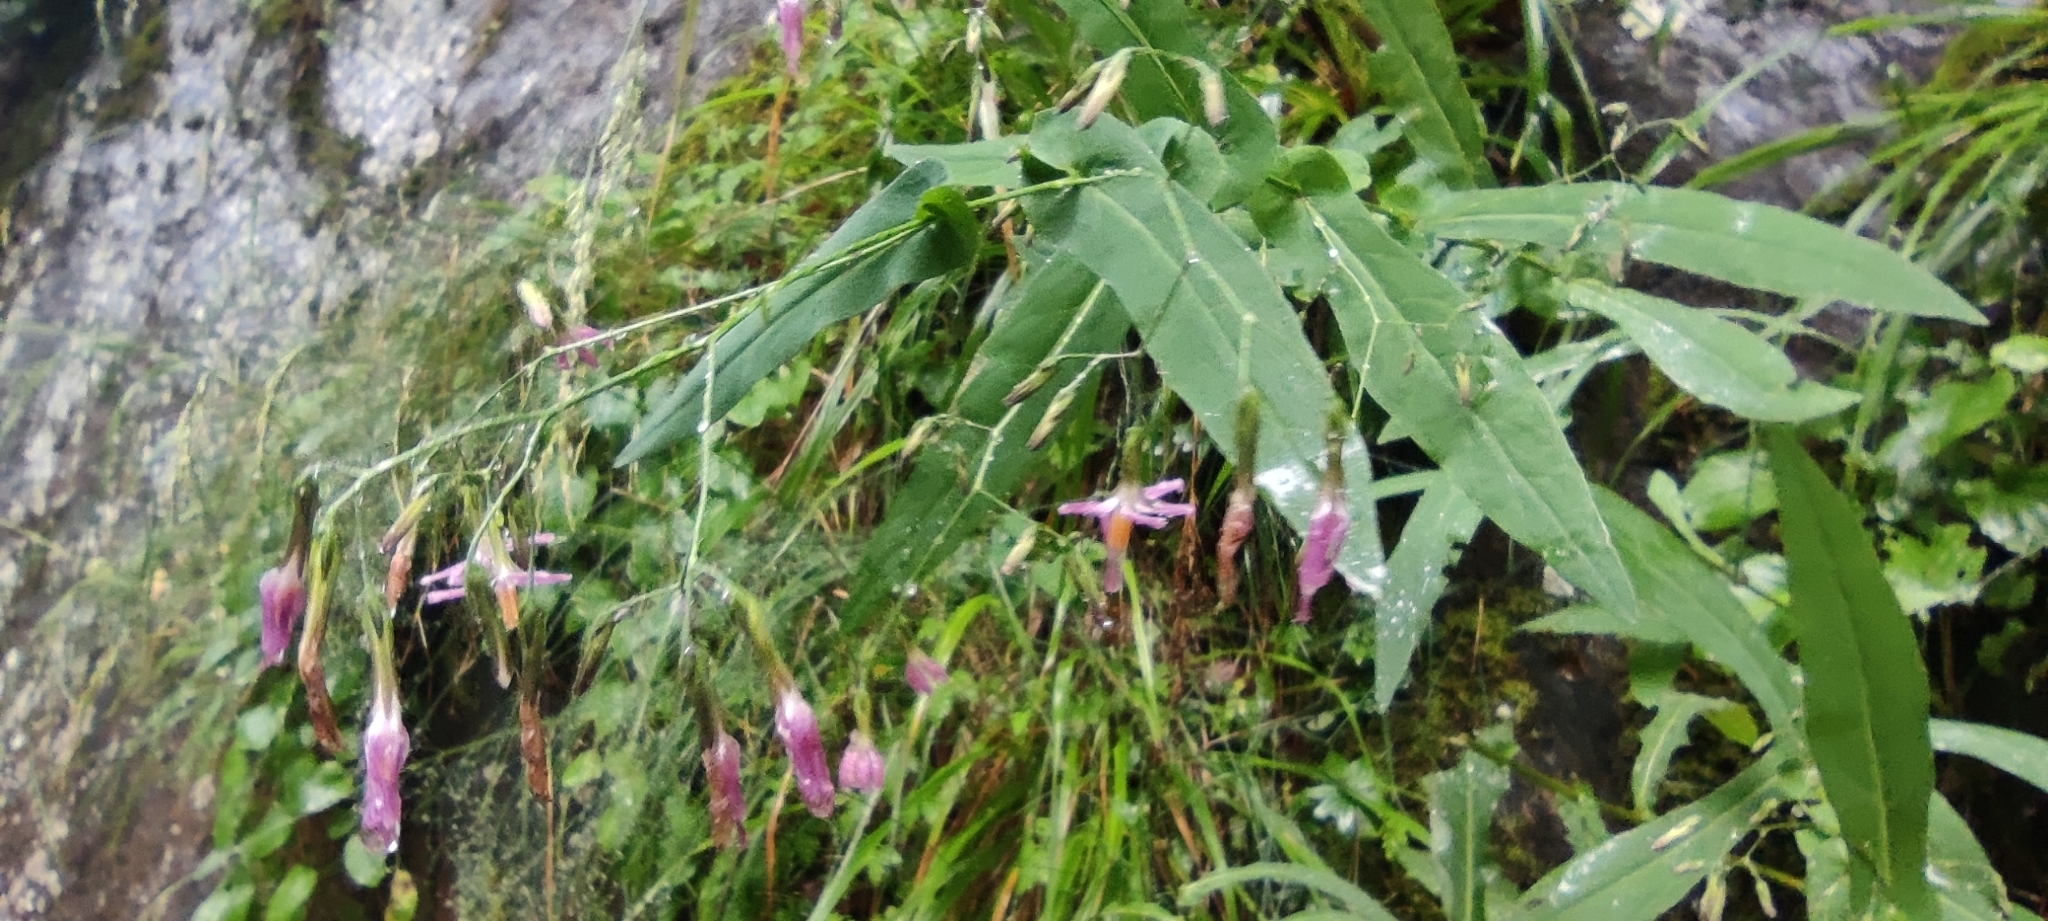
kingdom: Plantae
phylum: Tracheophyta
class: Magnoliopsida
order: Asterales
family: Asteraceae
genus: Prenanthes
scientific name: Prenanthes purpurea
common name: Purple lettuce
